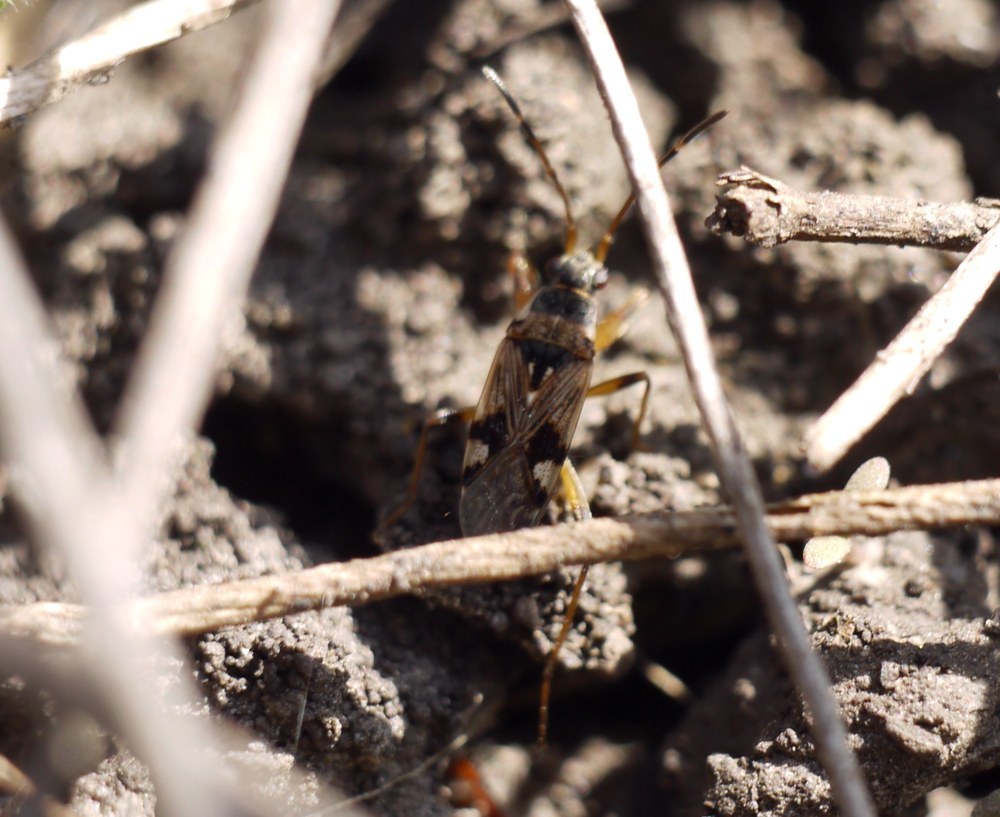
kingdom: Animalia
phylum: Arthropoda
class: Insecta
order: Hemiptera
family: Rhyparochromidae
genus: Beosus
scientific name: Beosus maritimus
